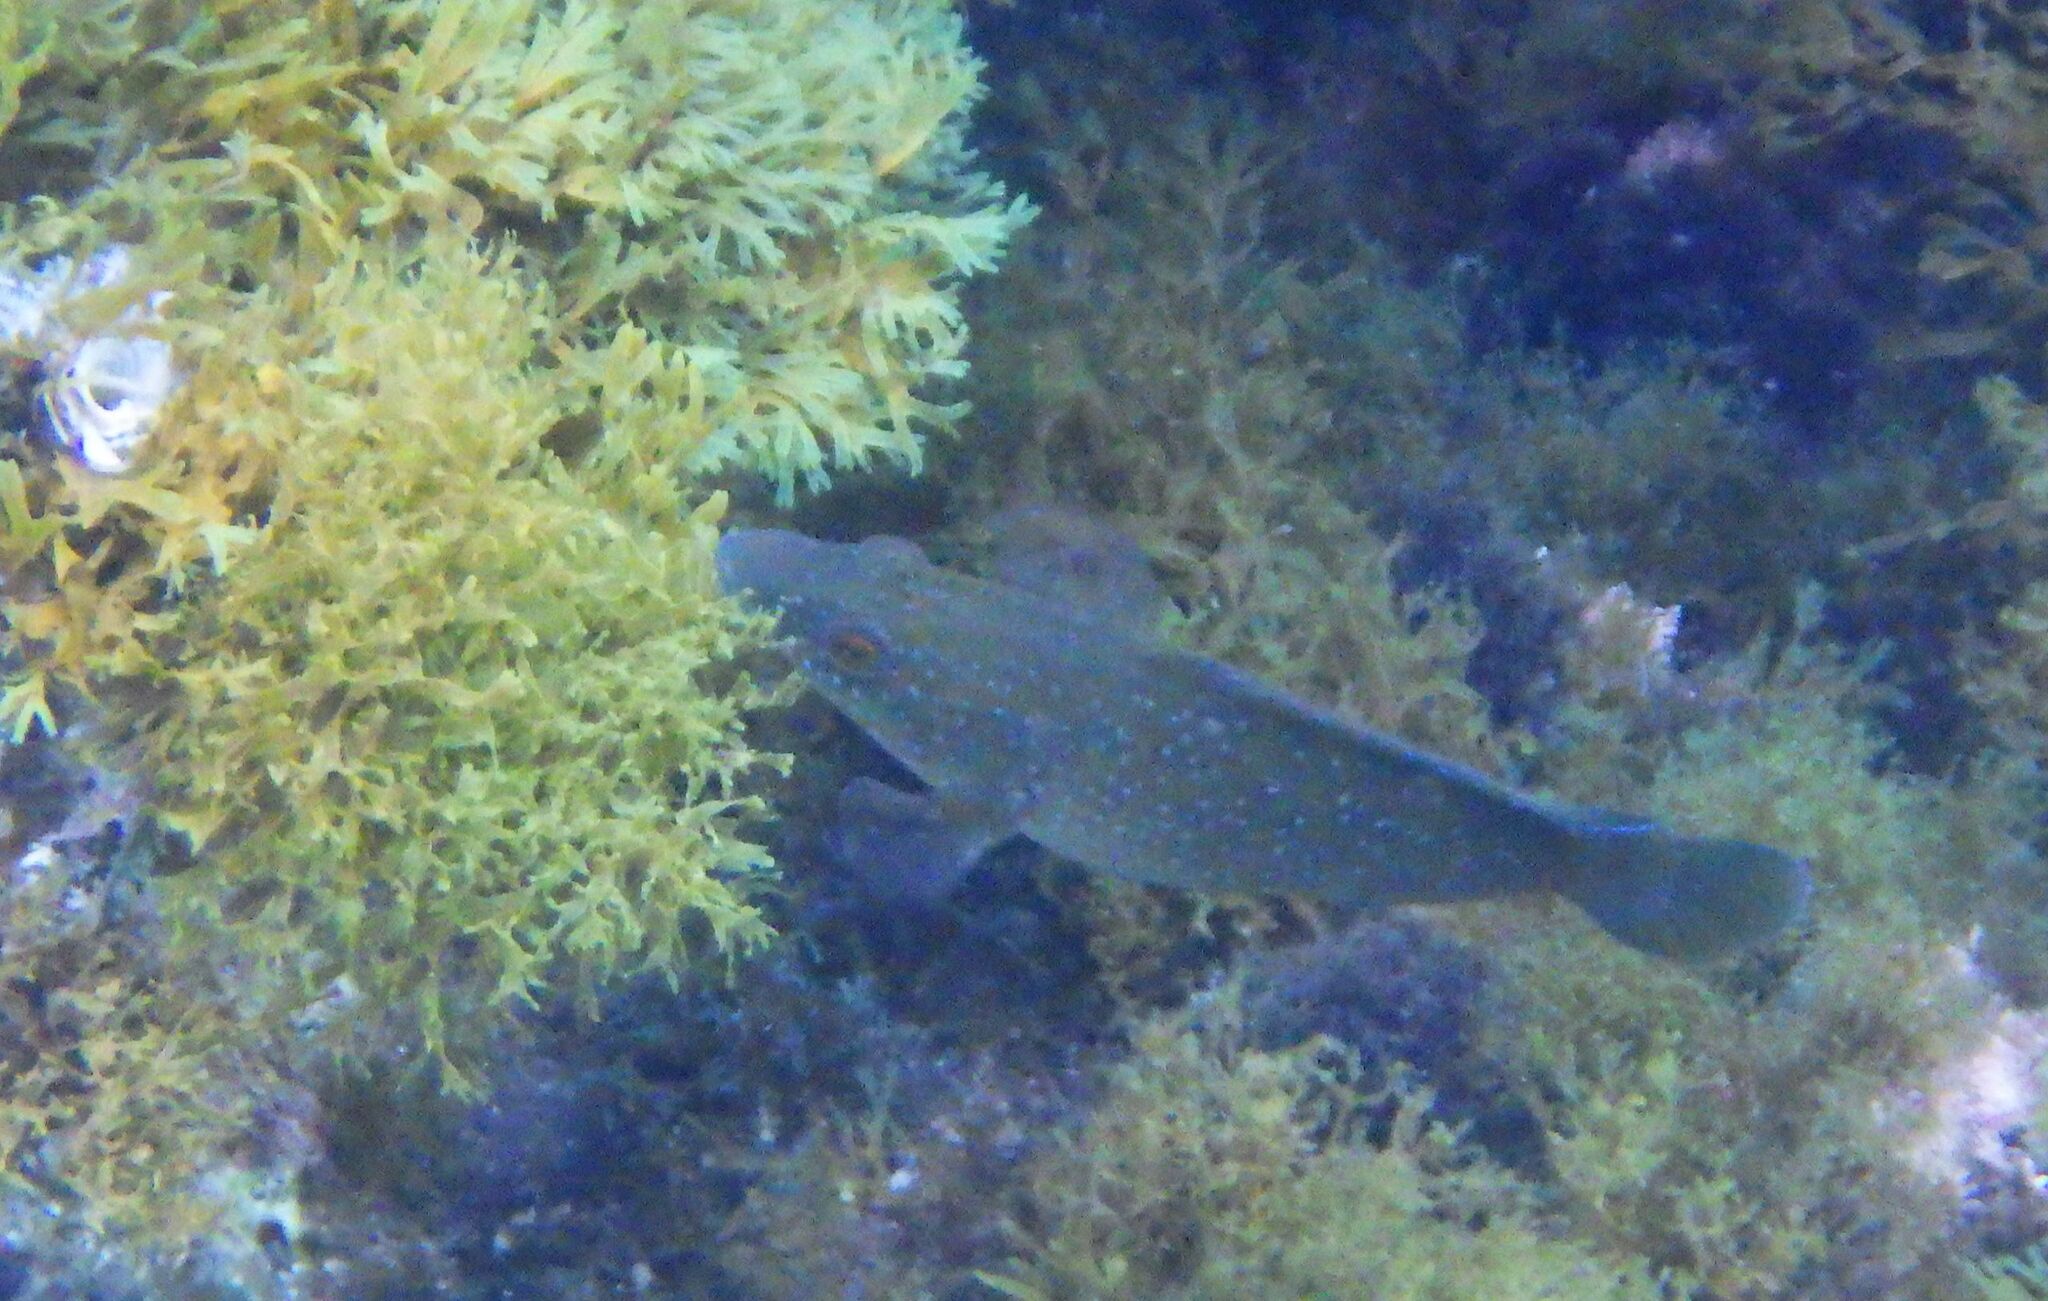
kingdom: Animalia
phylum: Chordata
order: Perciformes
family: Labridae
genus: Labrus
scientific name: Labrus merula
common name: Brown wrasse
